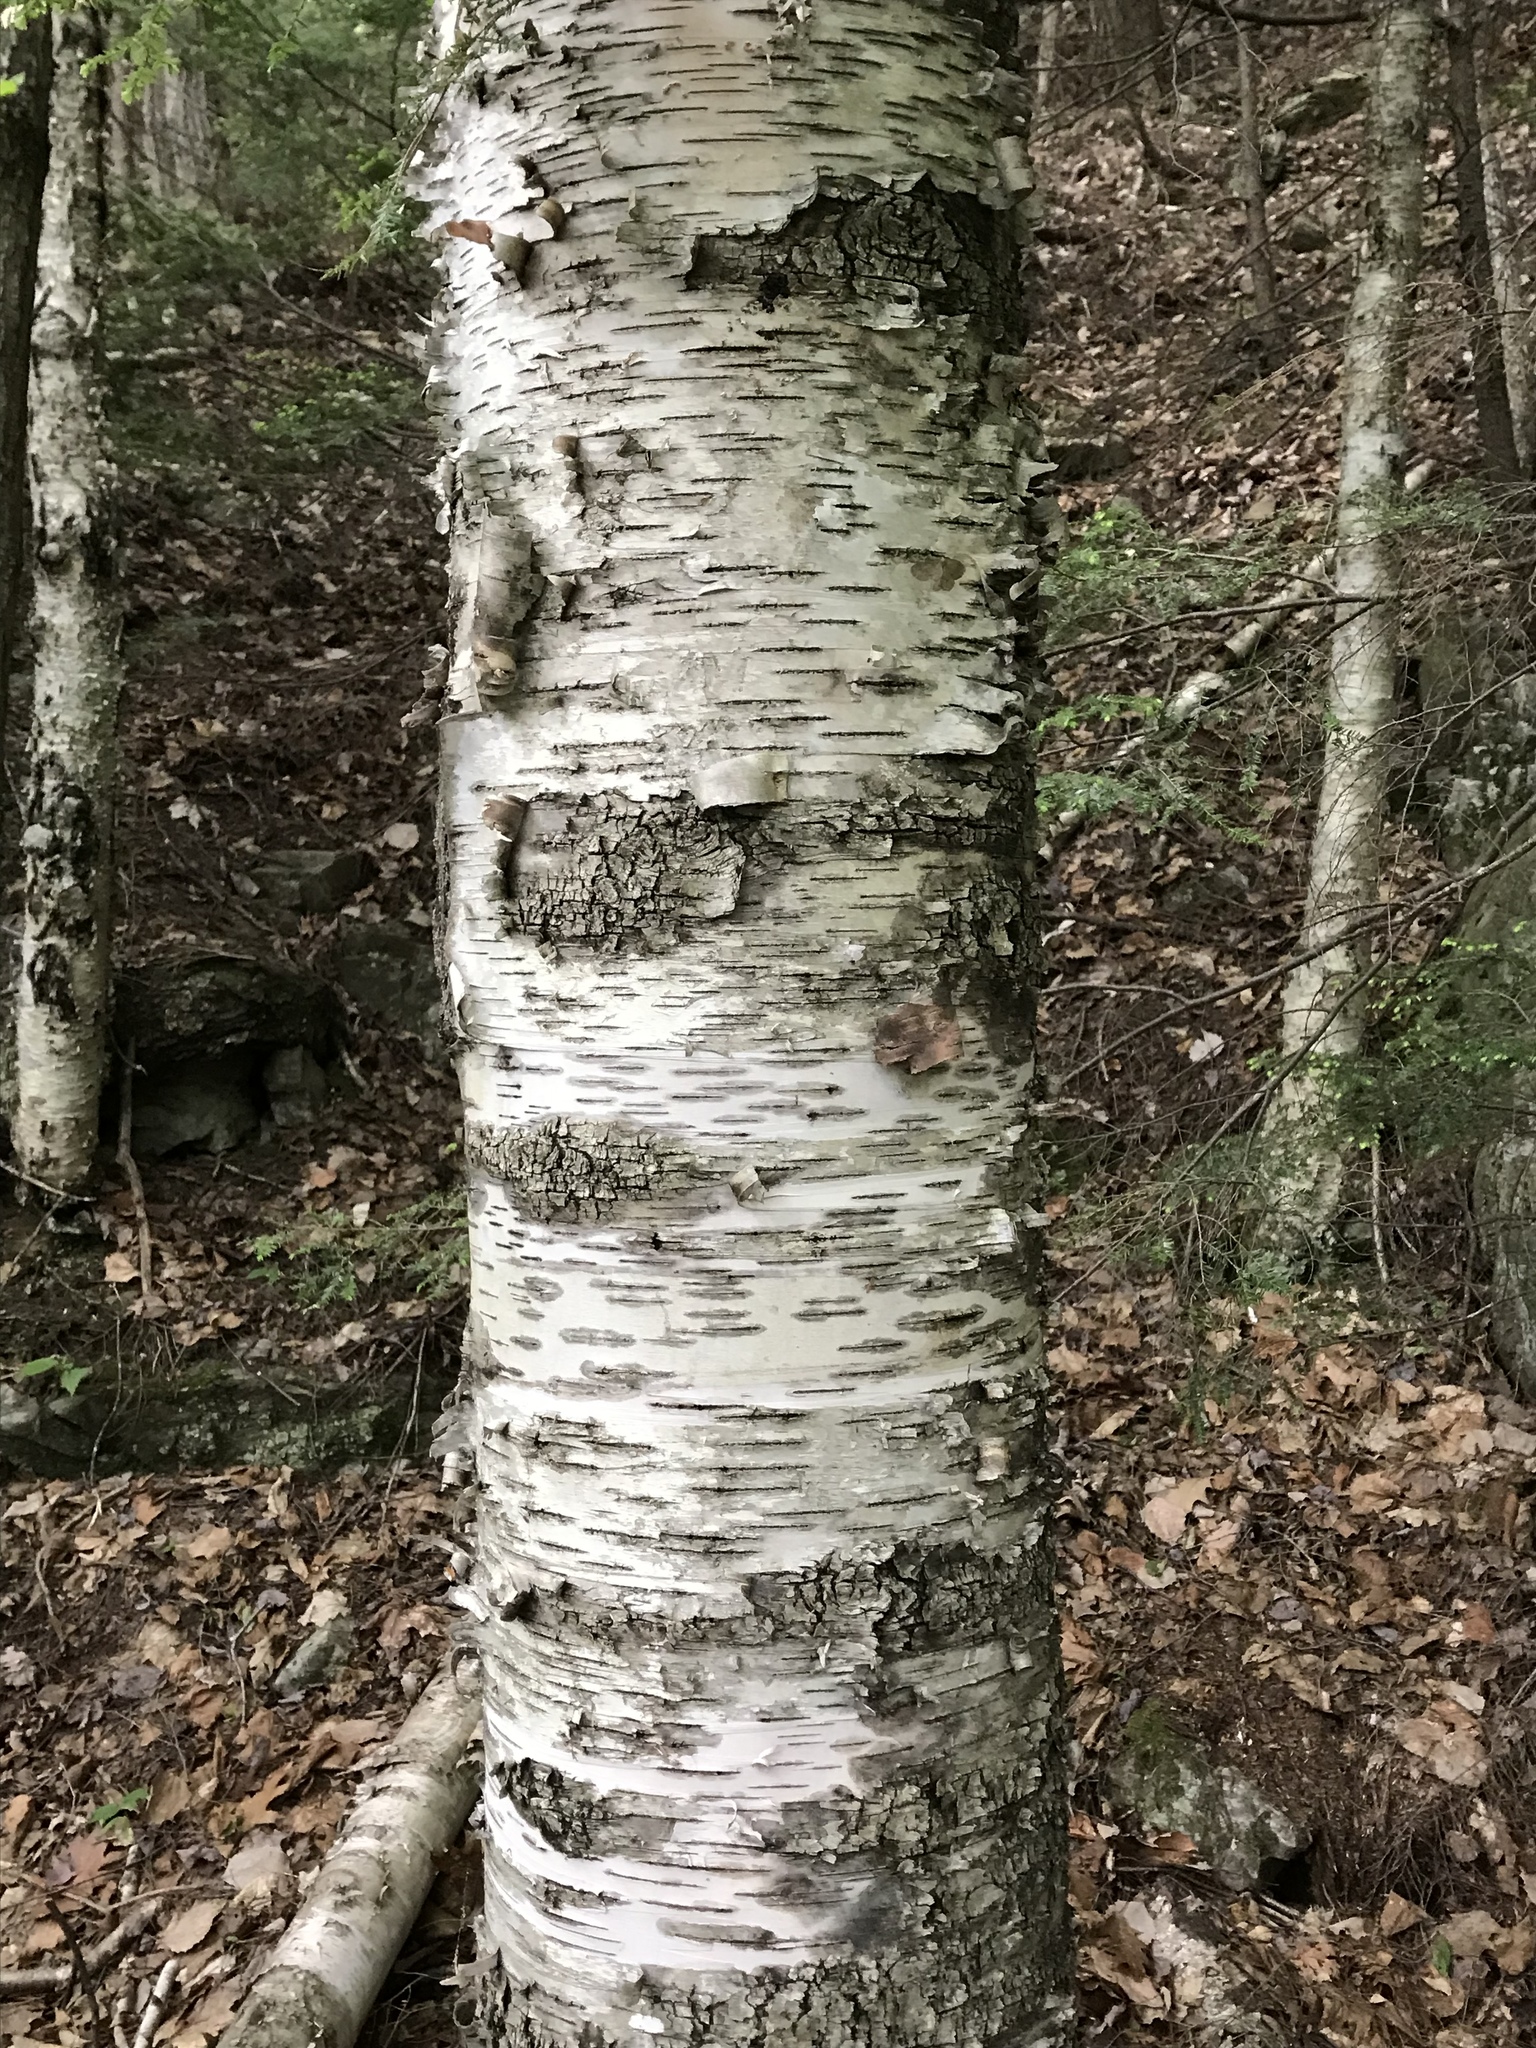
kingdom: Plantae
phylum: Tracheophyta
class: Magnoliopsida
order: Fagales
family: Betulaceae
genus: Betula
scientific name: Betula papyrifera
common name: Paper birch
